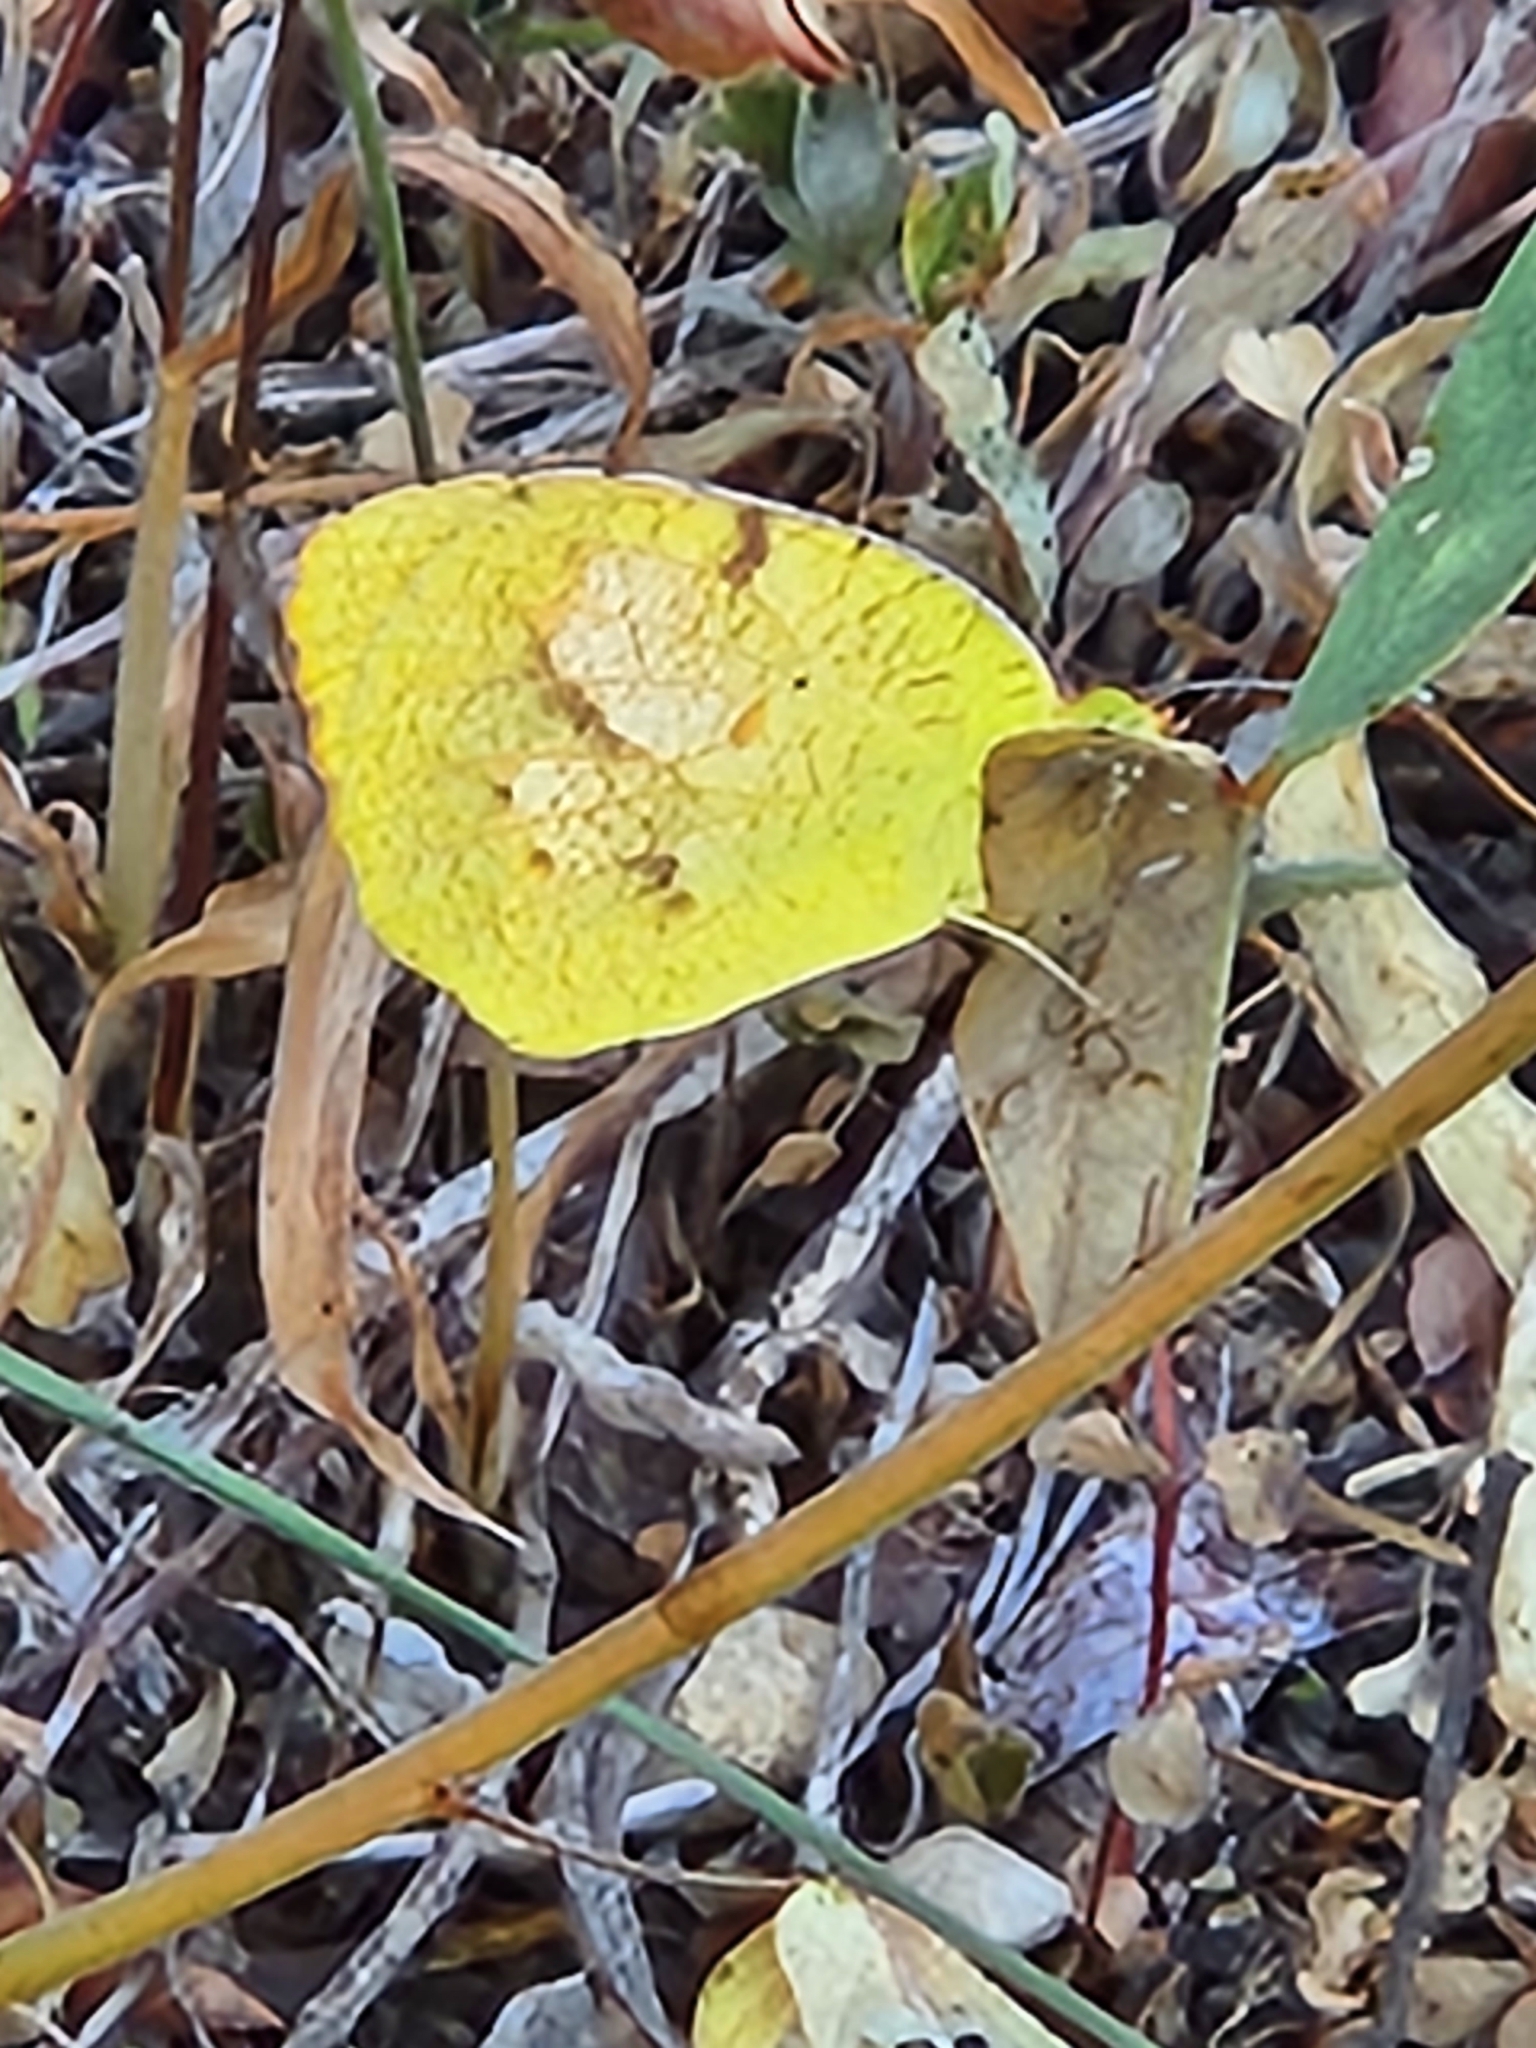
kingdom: Animalia
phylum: Arthropoda
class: Insecta
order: Lepidoptera
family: Pieridae
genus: Abaeis
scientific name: Abaeis nicippe
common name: Sleepy orange
